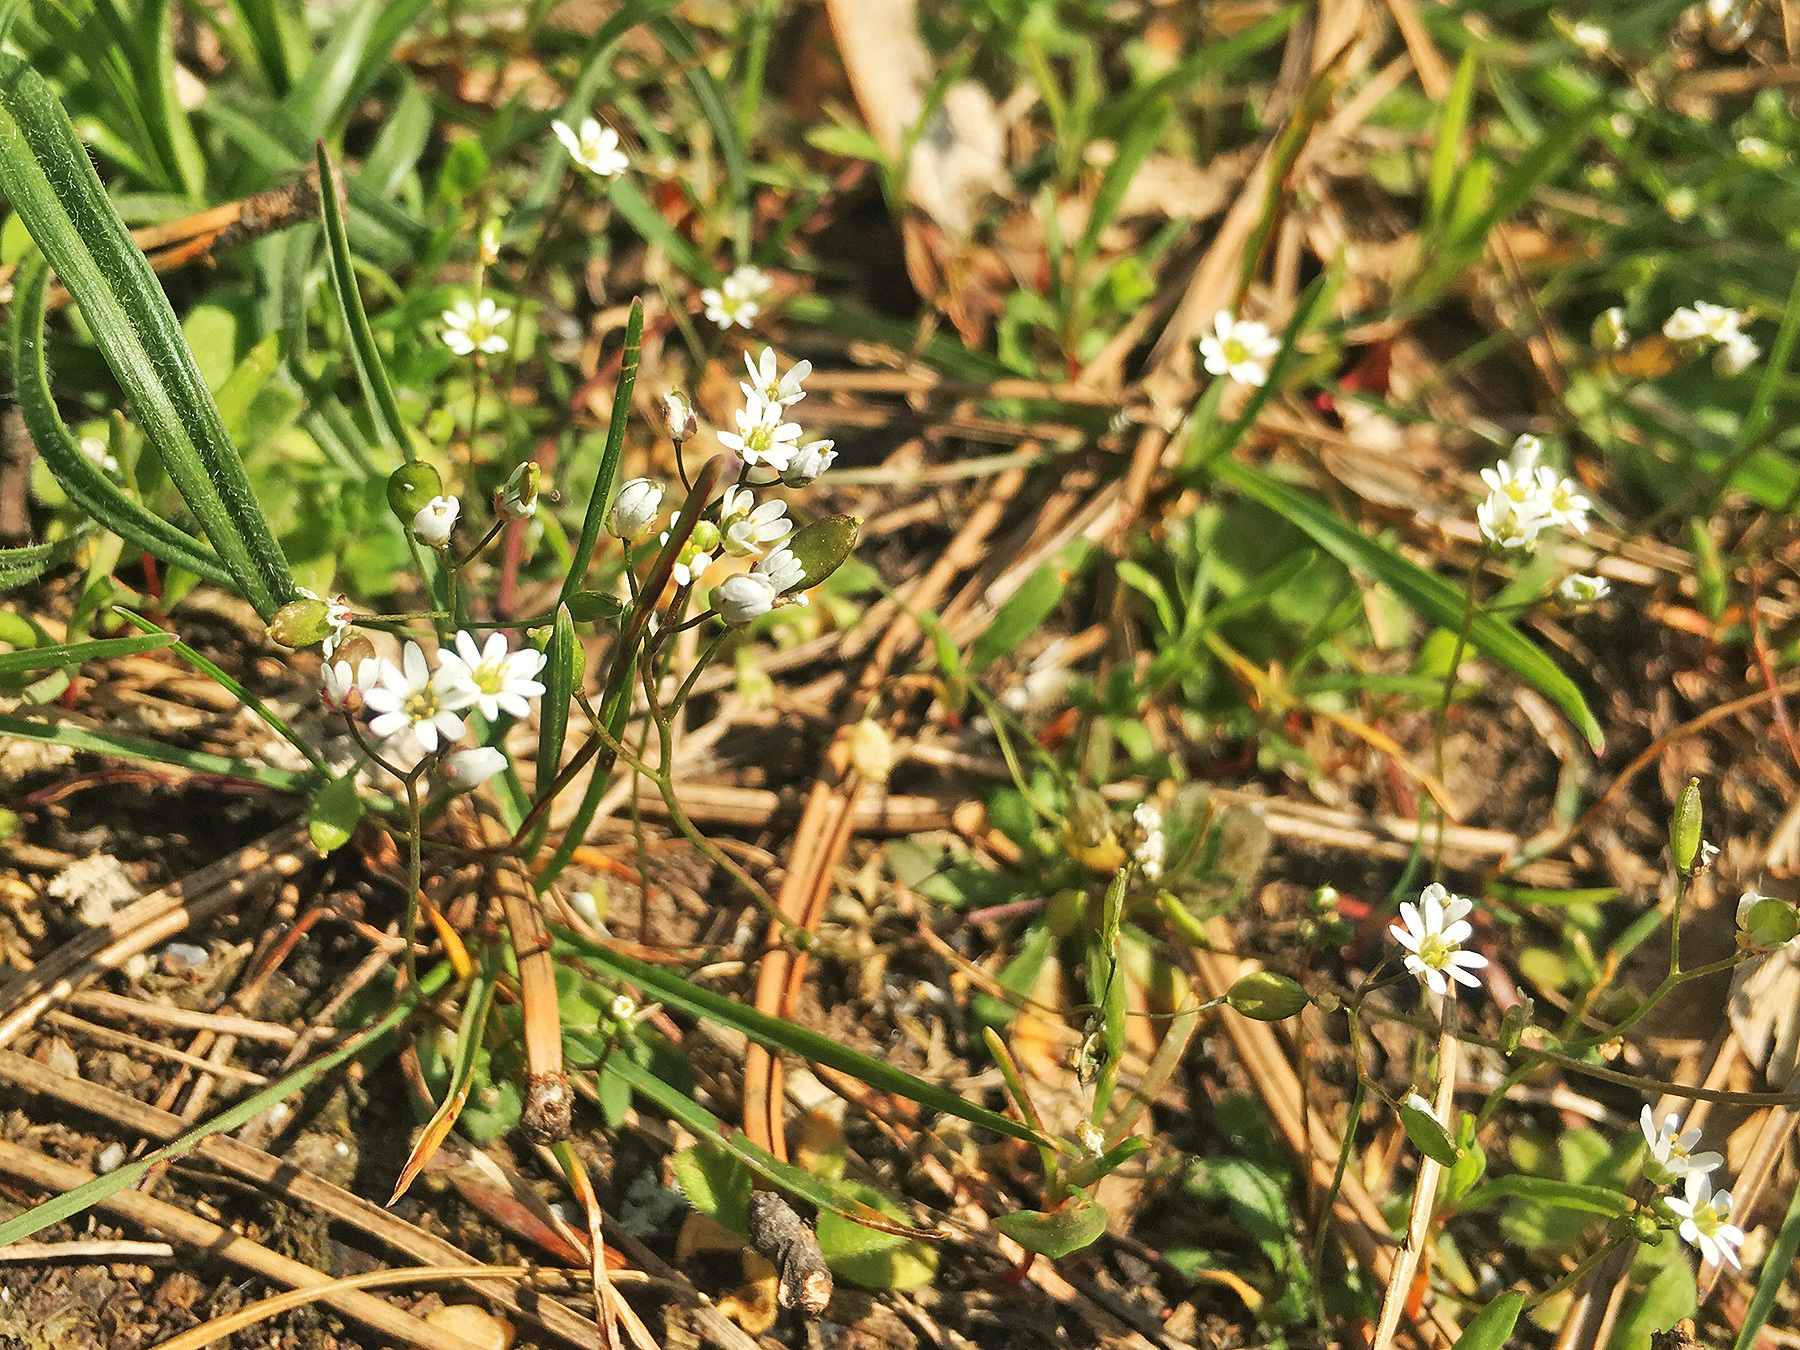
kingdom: Plantae
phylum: Tracheophyta
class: Magnoliopsida
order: Brassicales
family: Brassicaceae
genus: Draba
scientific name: Draba verna
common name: Spring draba
